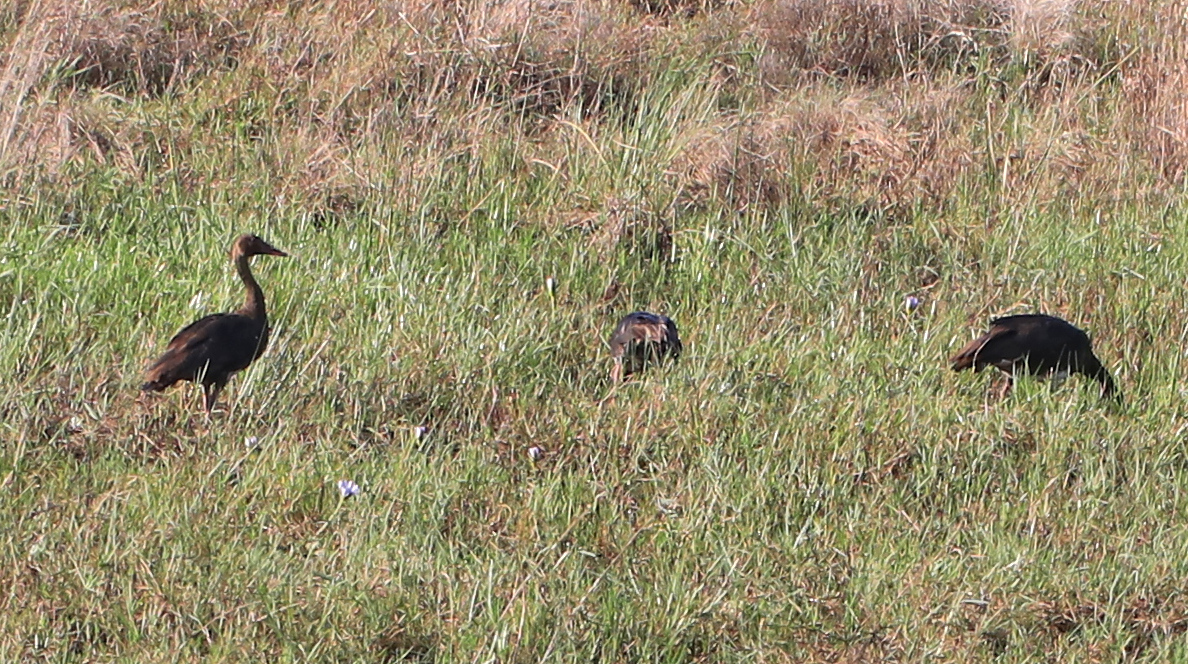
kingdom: Animalia
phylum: Chordata
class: Aves
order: Anseriformes
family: Anatidae
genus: Plectropterus
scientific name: Plectropterus gambensis
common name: Spur-winged goose
